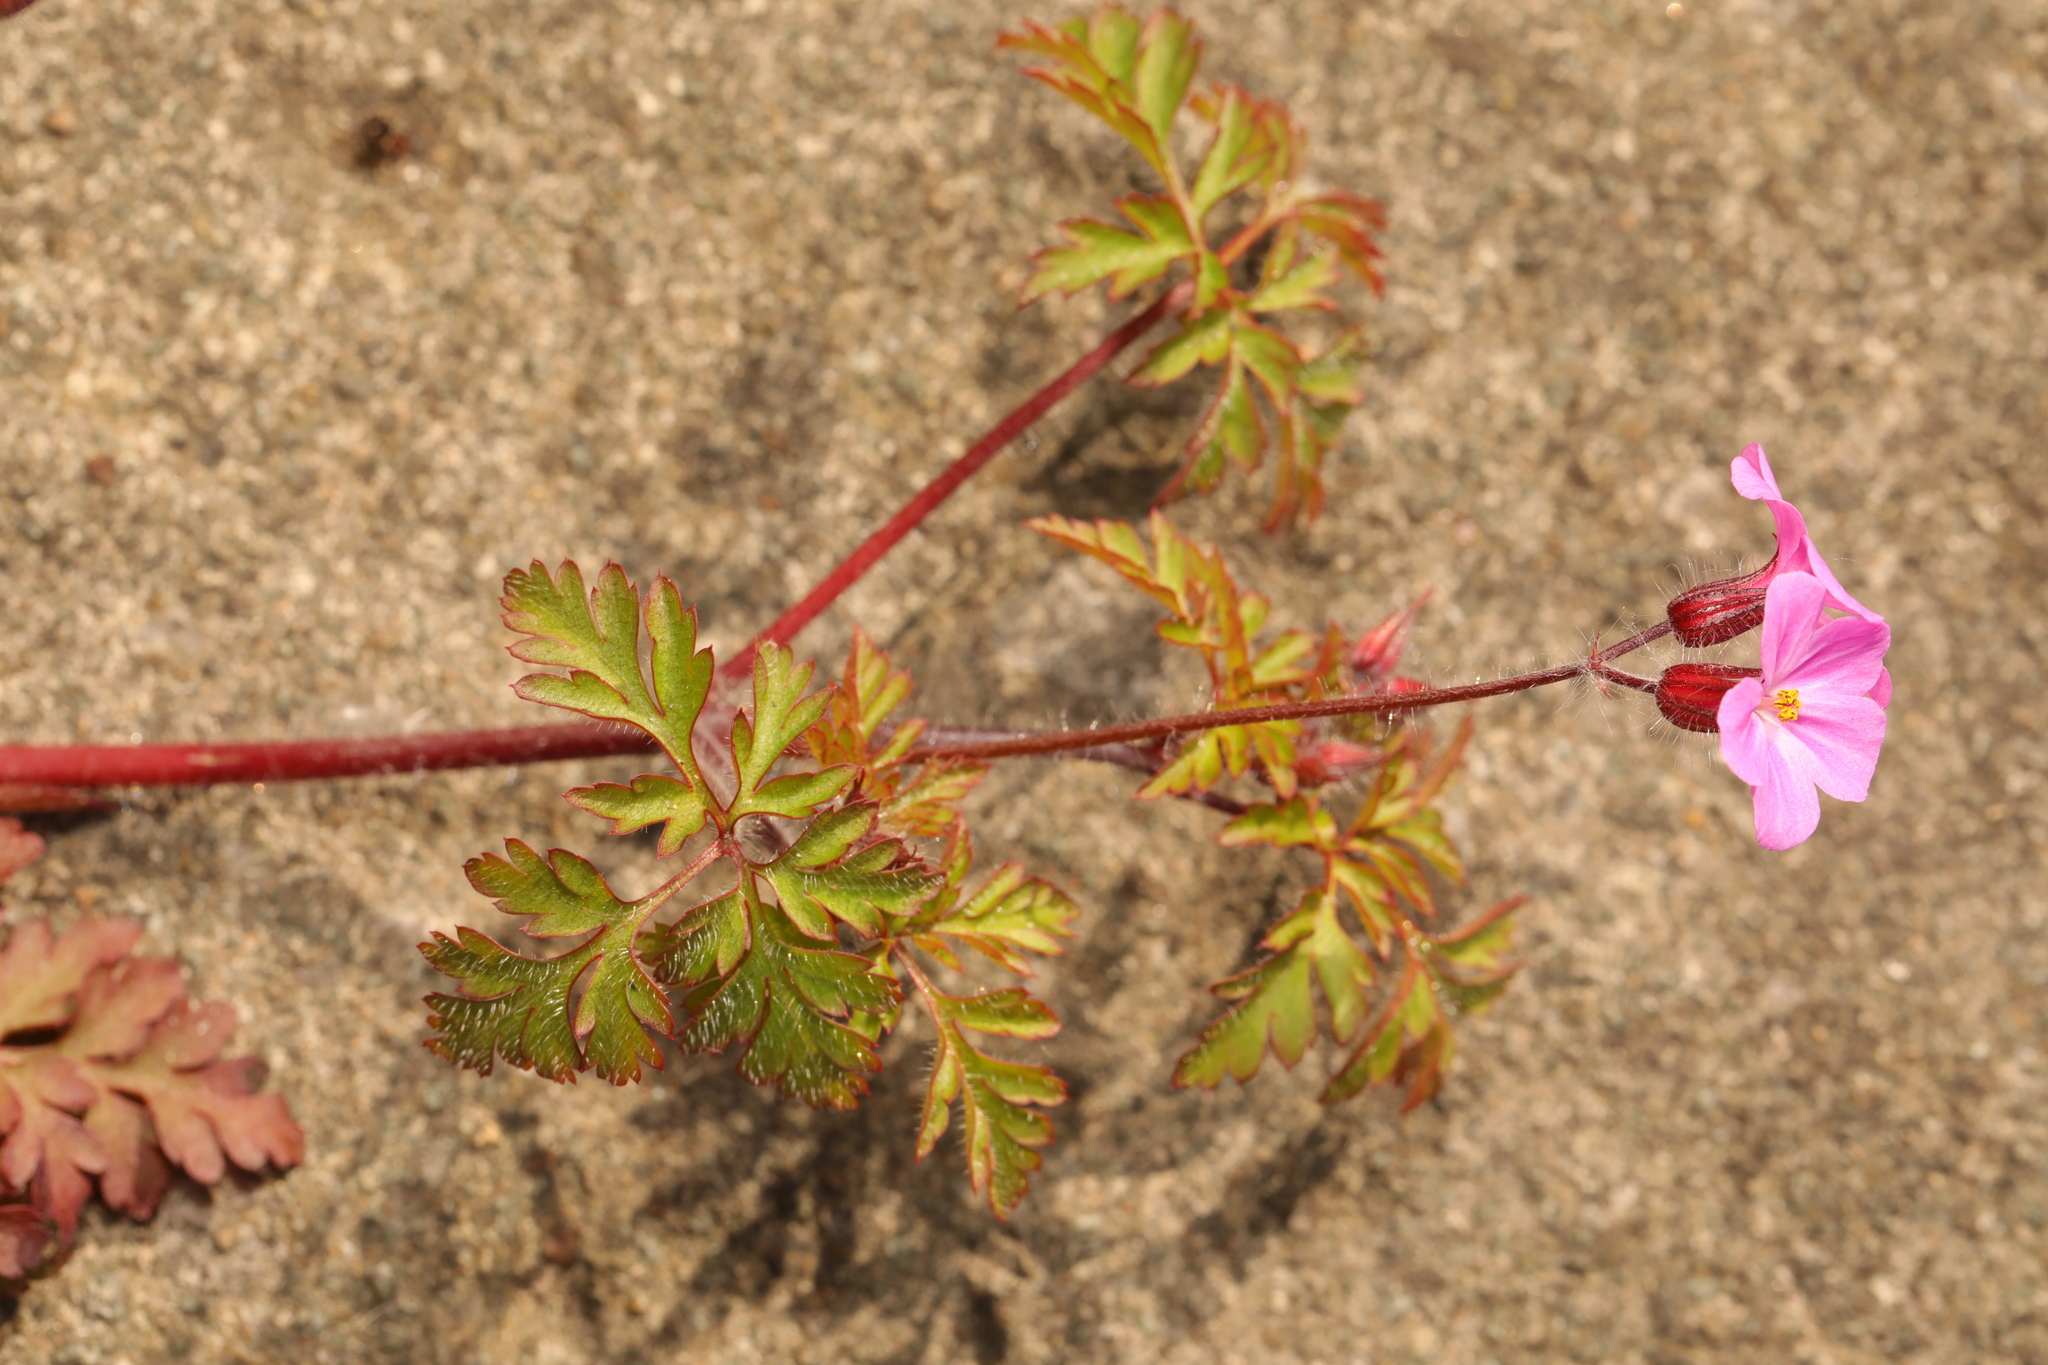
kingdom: Plantae
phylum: Tracheophyta
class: Magnoliopsida
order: Geraniales
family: Geraniaceae
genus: Geranium
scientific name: Geranium robertianum
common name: Herb-robert
